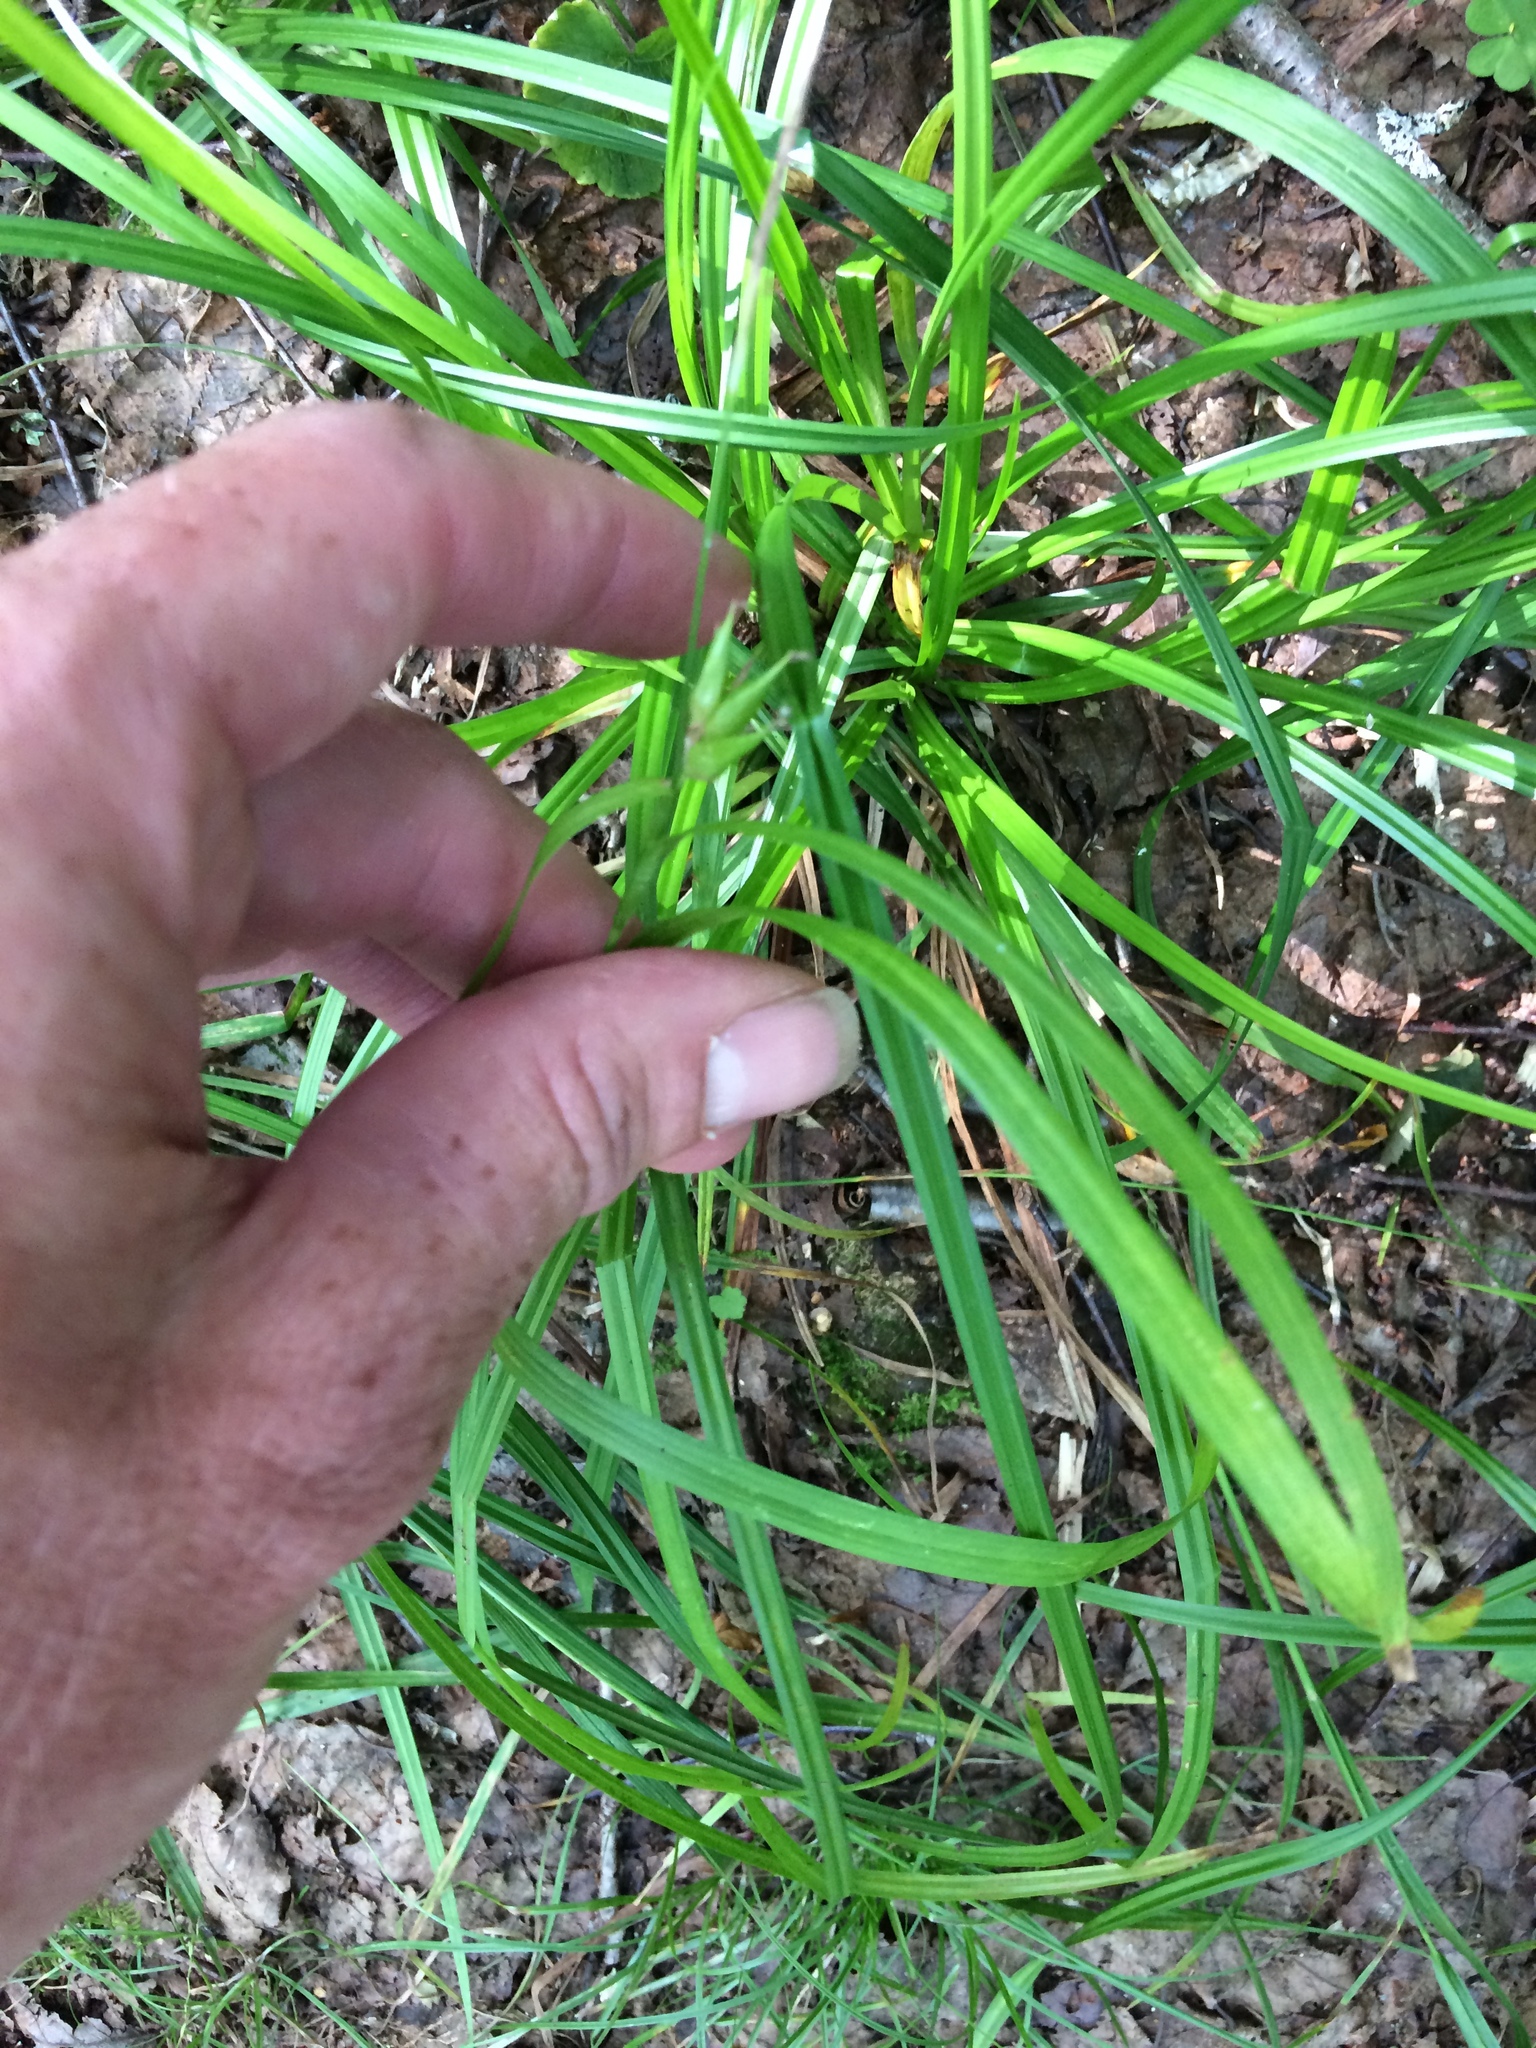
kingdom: Plantae
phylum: Tracheophyta
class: Liliopsida
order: Poales
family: Cyperaceae
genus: Carex
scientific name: Carex intumescens
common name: Greater bladder sedge
